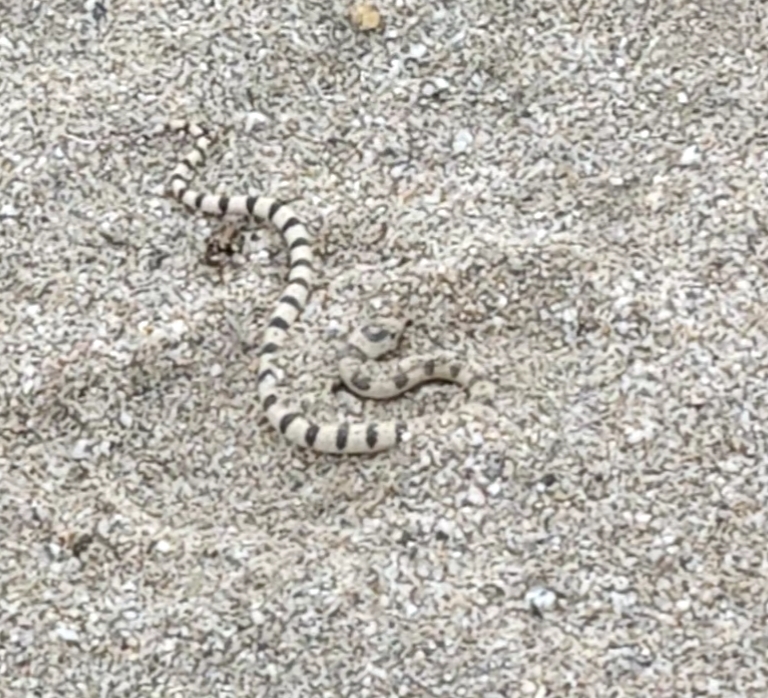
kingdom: Animalia
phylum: Chordata
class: Squamata
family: Colubridae
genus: Sonora
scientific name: Sonora occipitalis
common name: Western shovelnose snake
